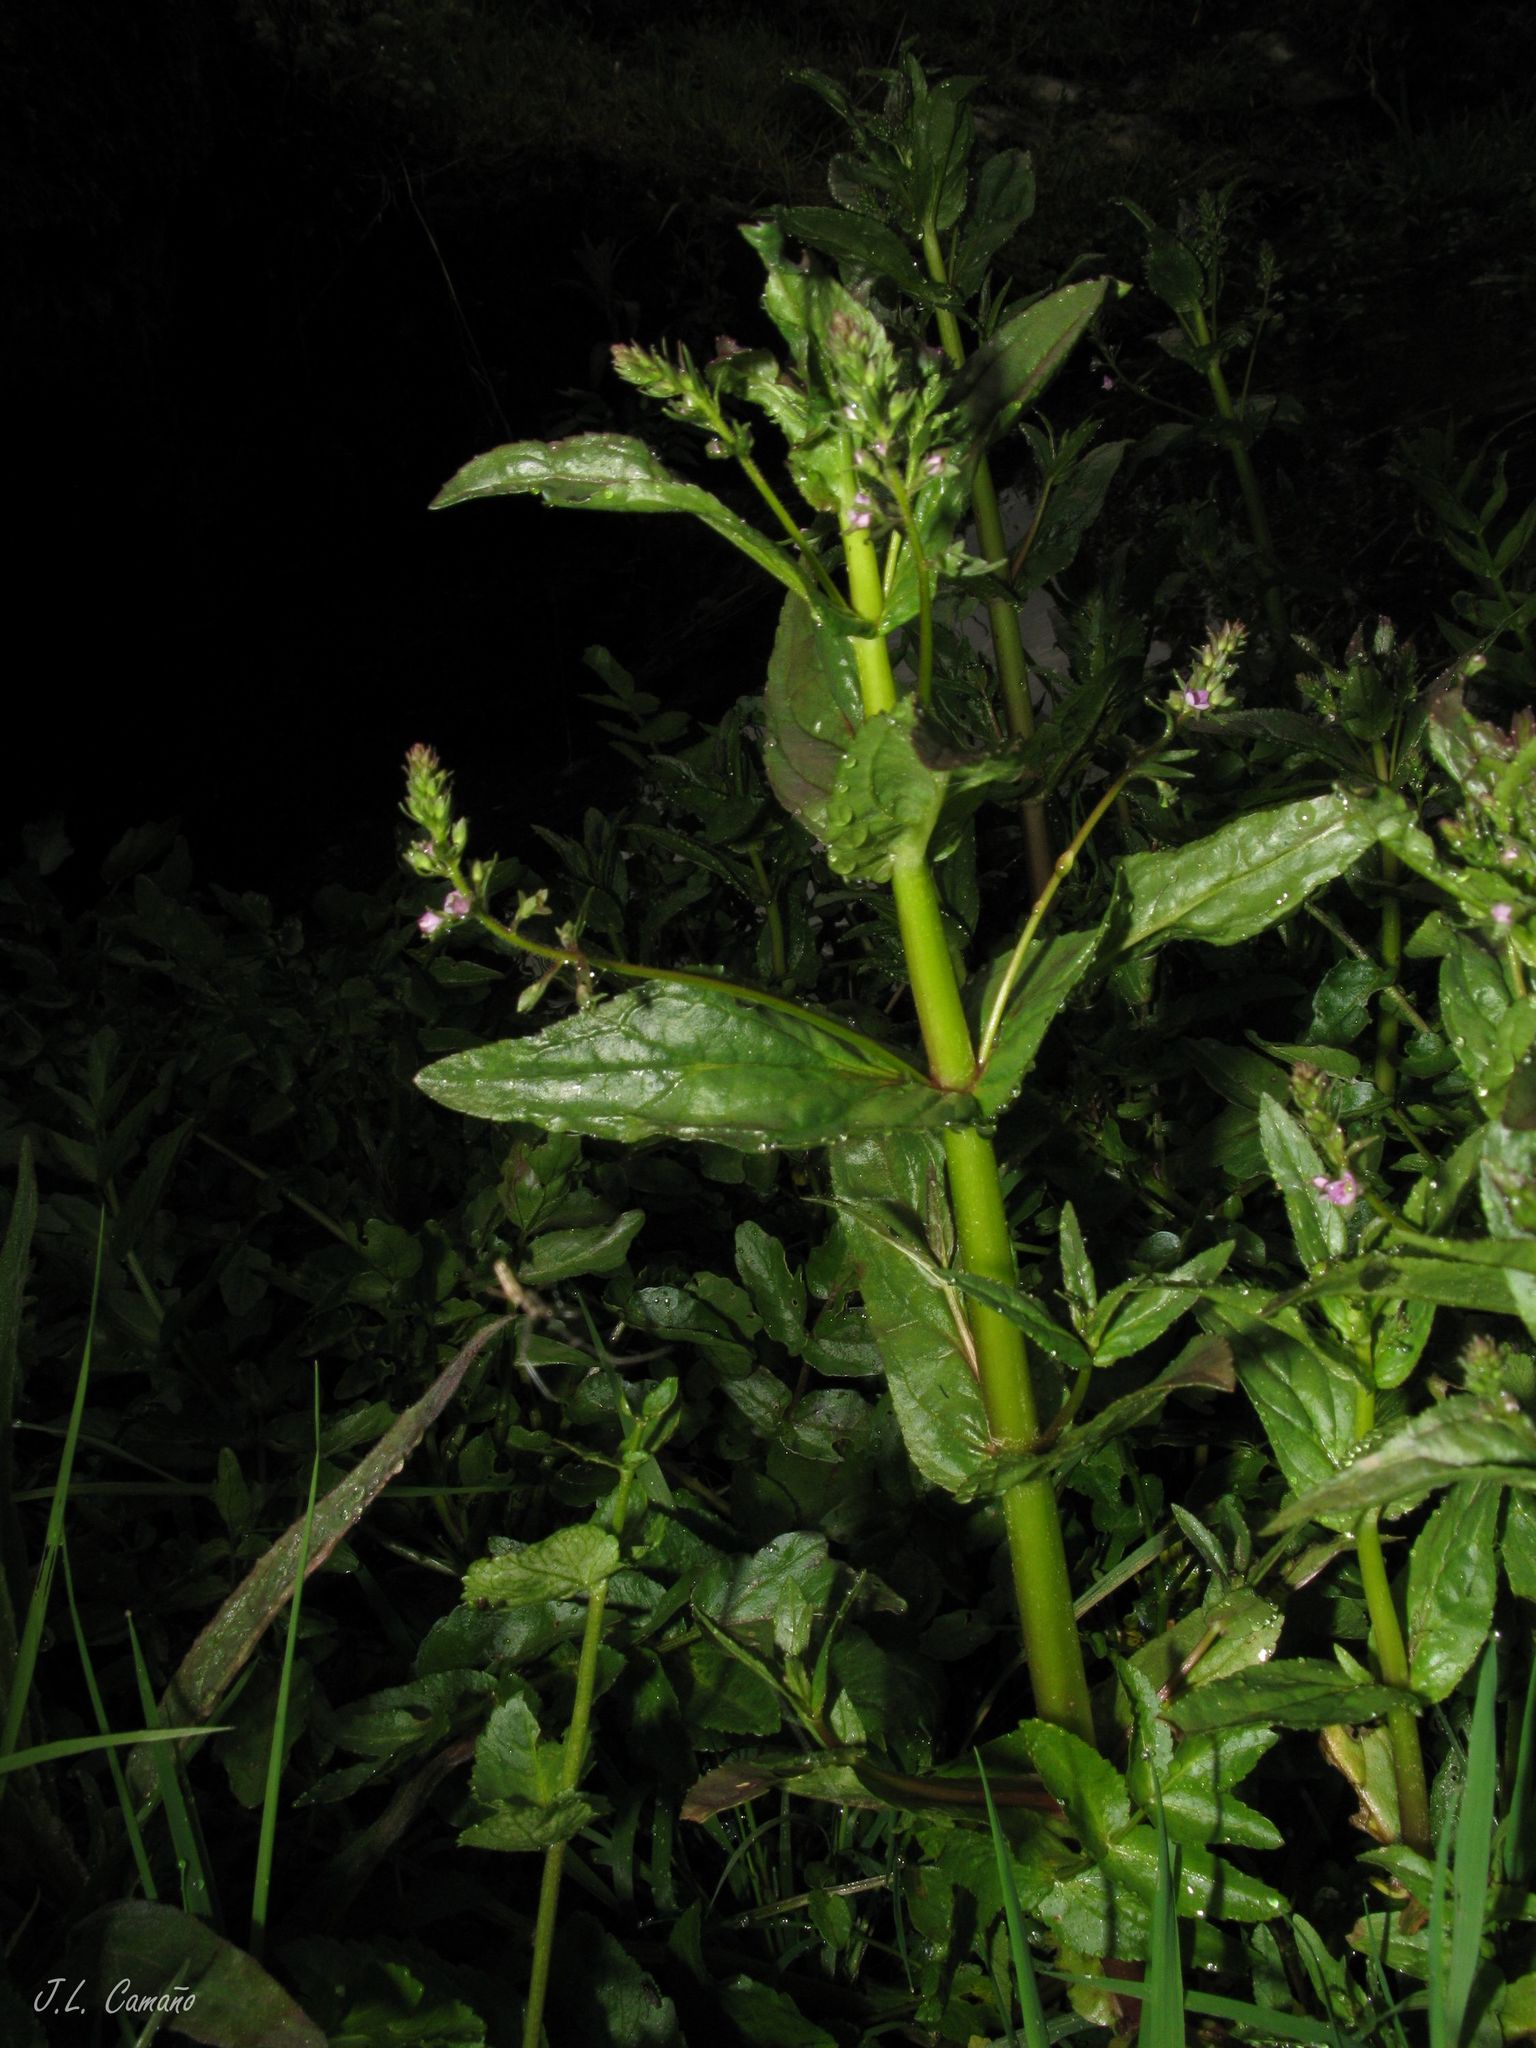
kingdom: Plantae
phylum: Tracheophyta
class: Magnoliopsida
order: Lamiales
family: Plantaginaceae
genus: Veronica
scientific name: Veronica anagallis-aquatica
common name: Water speedwell
